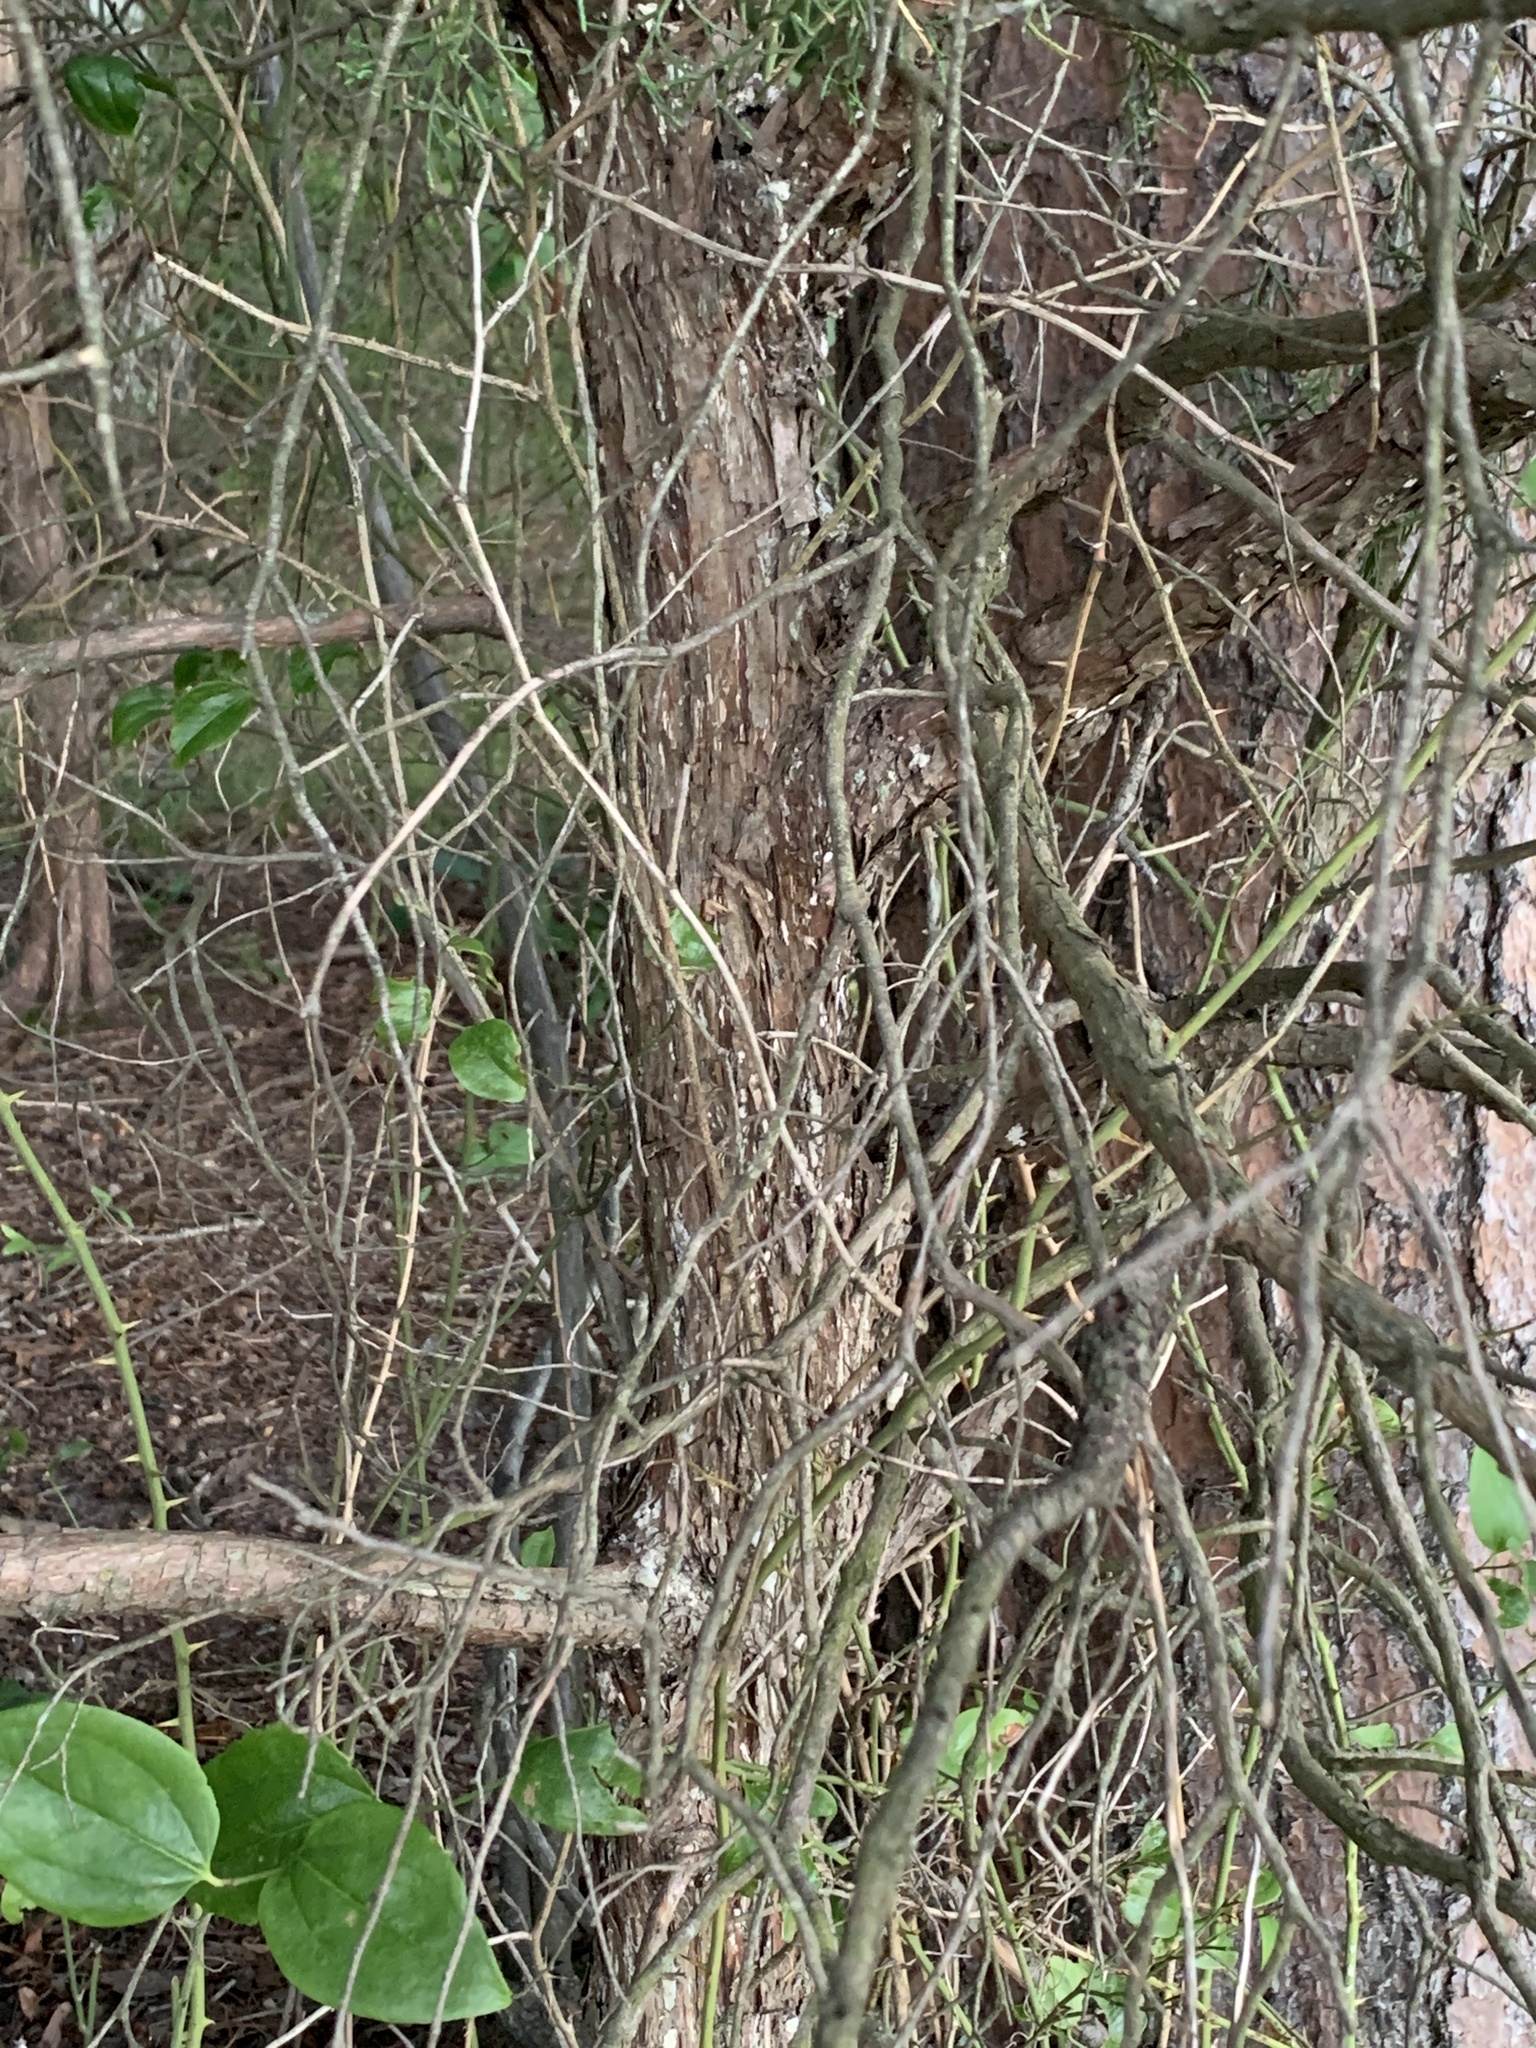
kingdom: Plantae
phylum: Tracheophyta
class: Pinopsida
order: Pinales
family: Cupressaceae
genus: Juniperus
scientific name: Juniperus virginiana
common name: Red juniper
